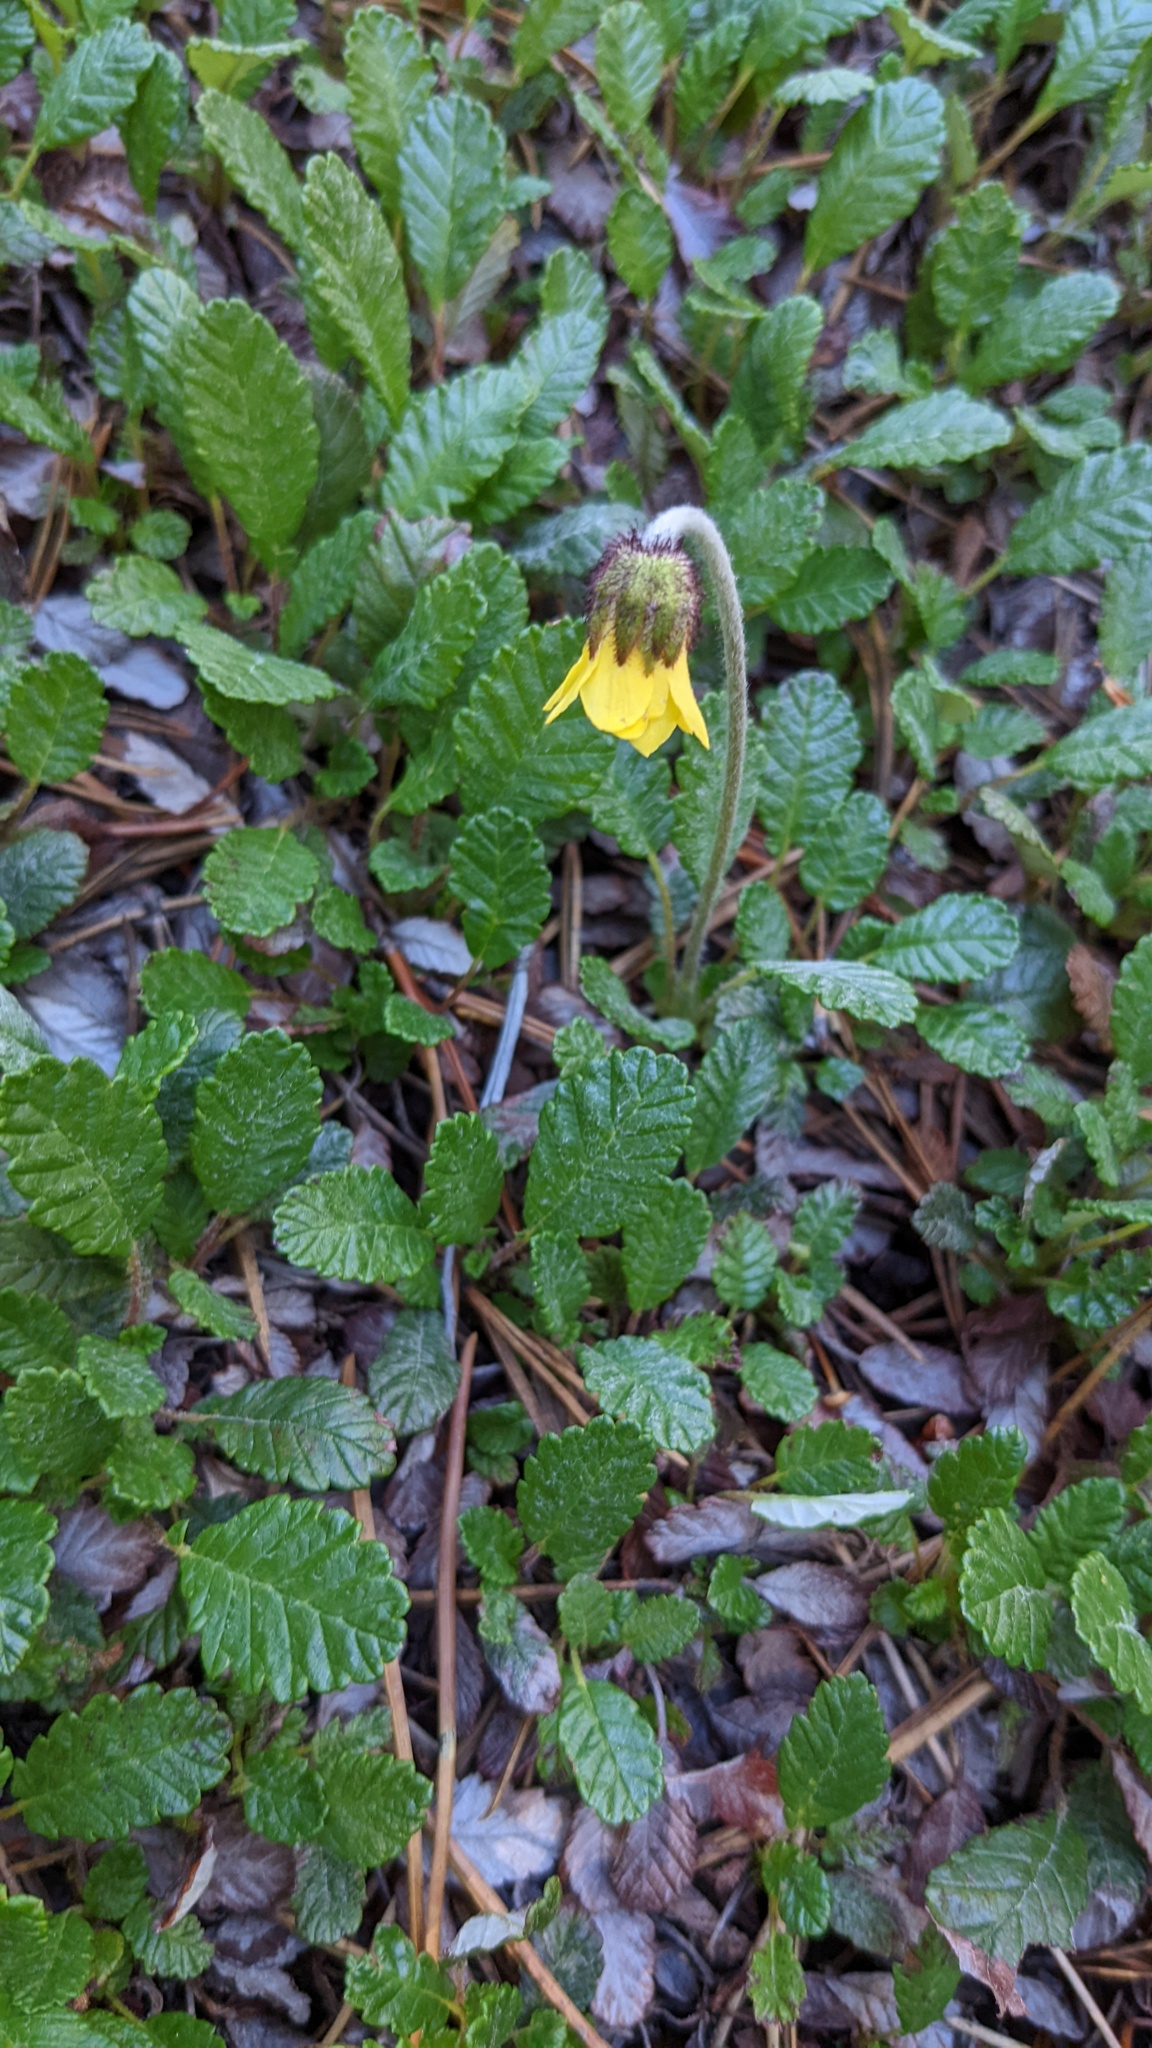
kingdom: Plantae
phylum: Tracheophyta
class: Magnoliopsida
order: Rosales
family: Rosaceae
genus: Dryas
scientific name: Dryas drummondii
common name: Drummond's dryad
